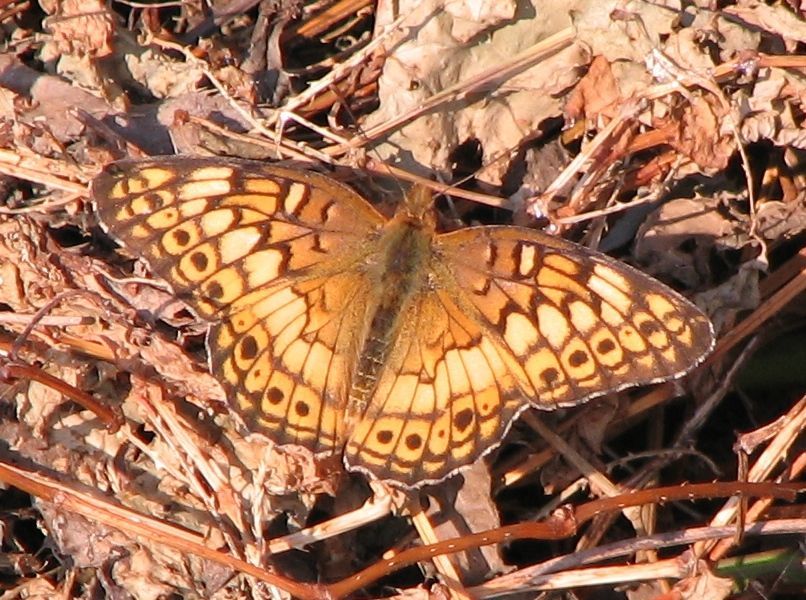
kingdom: Animalia
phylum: Arthropoda
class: Insecta
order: Lepidoptera
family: Nymphalidae
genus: Euptoieta
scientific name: Euptoieta claudia
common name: Variegated fritillary
